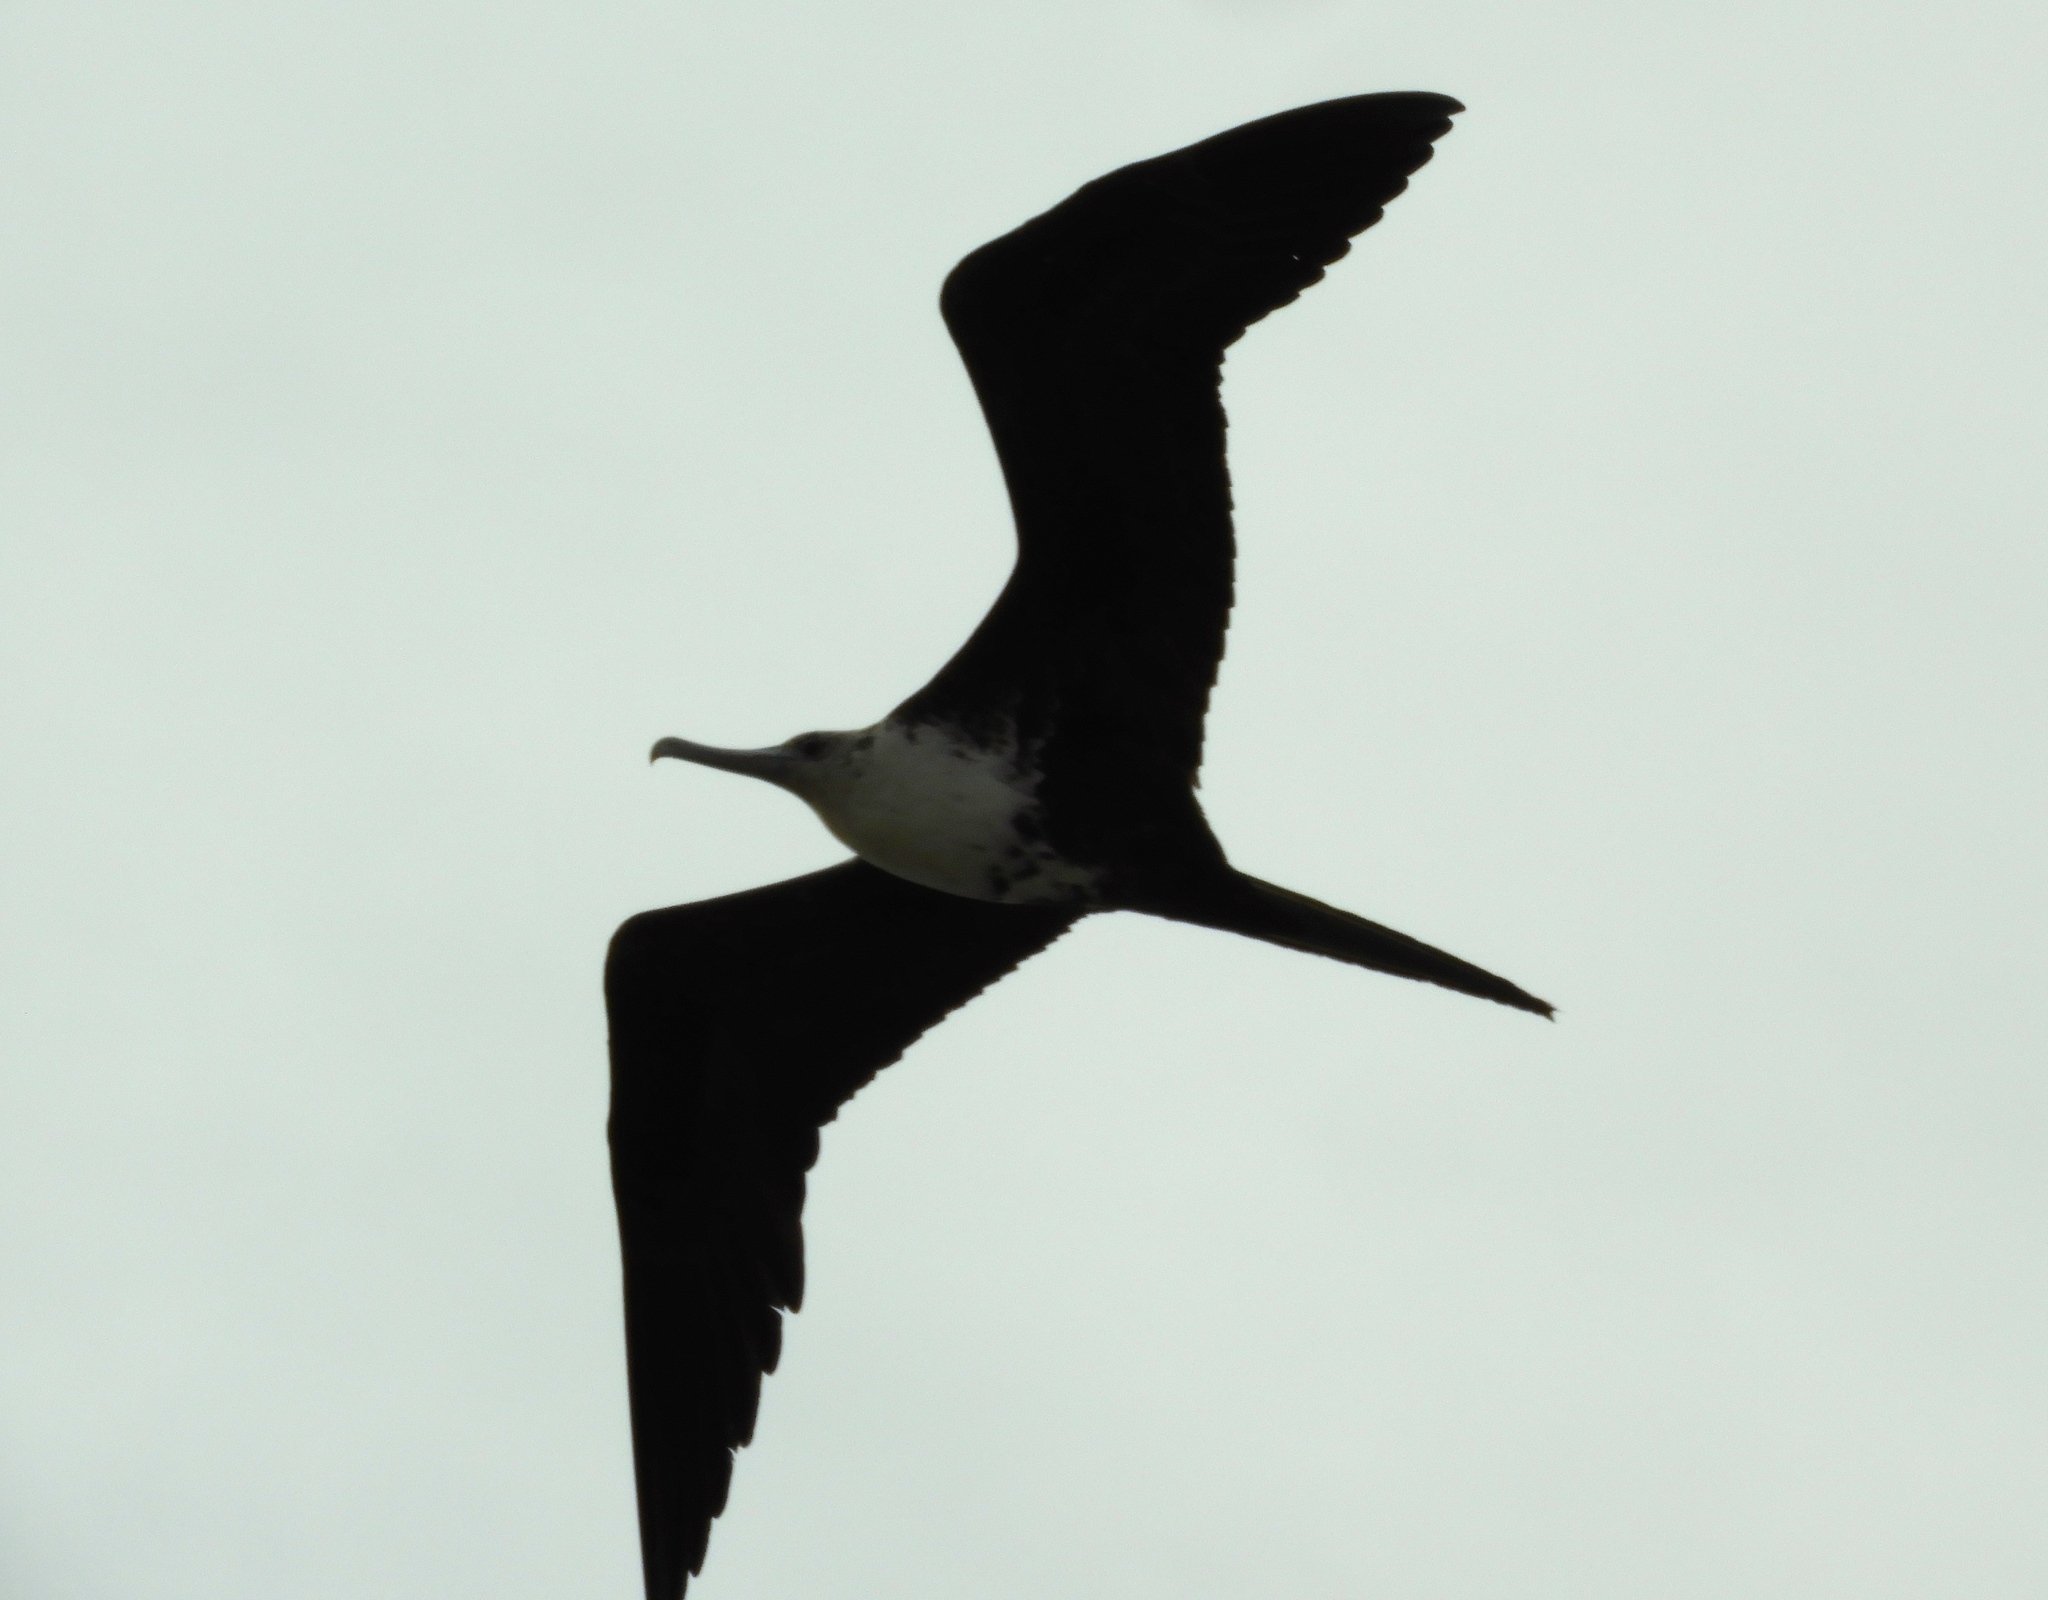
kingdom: Animalia
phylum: Chordata
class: Aves
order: Suliformes
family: Fregatidae
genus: Fregata
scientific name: Fregata magnificens
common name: Magnificent frigatebird
